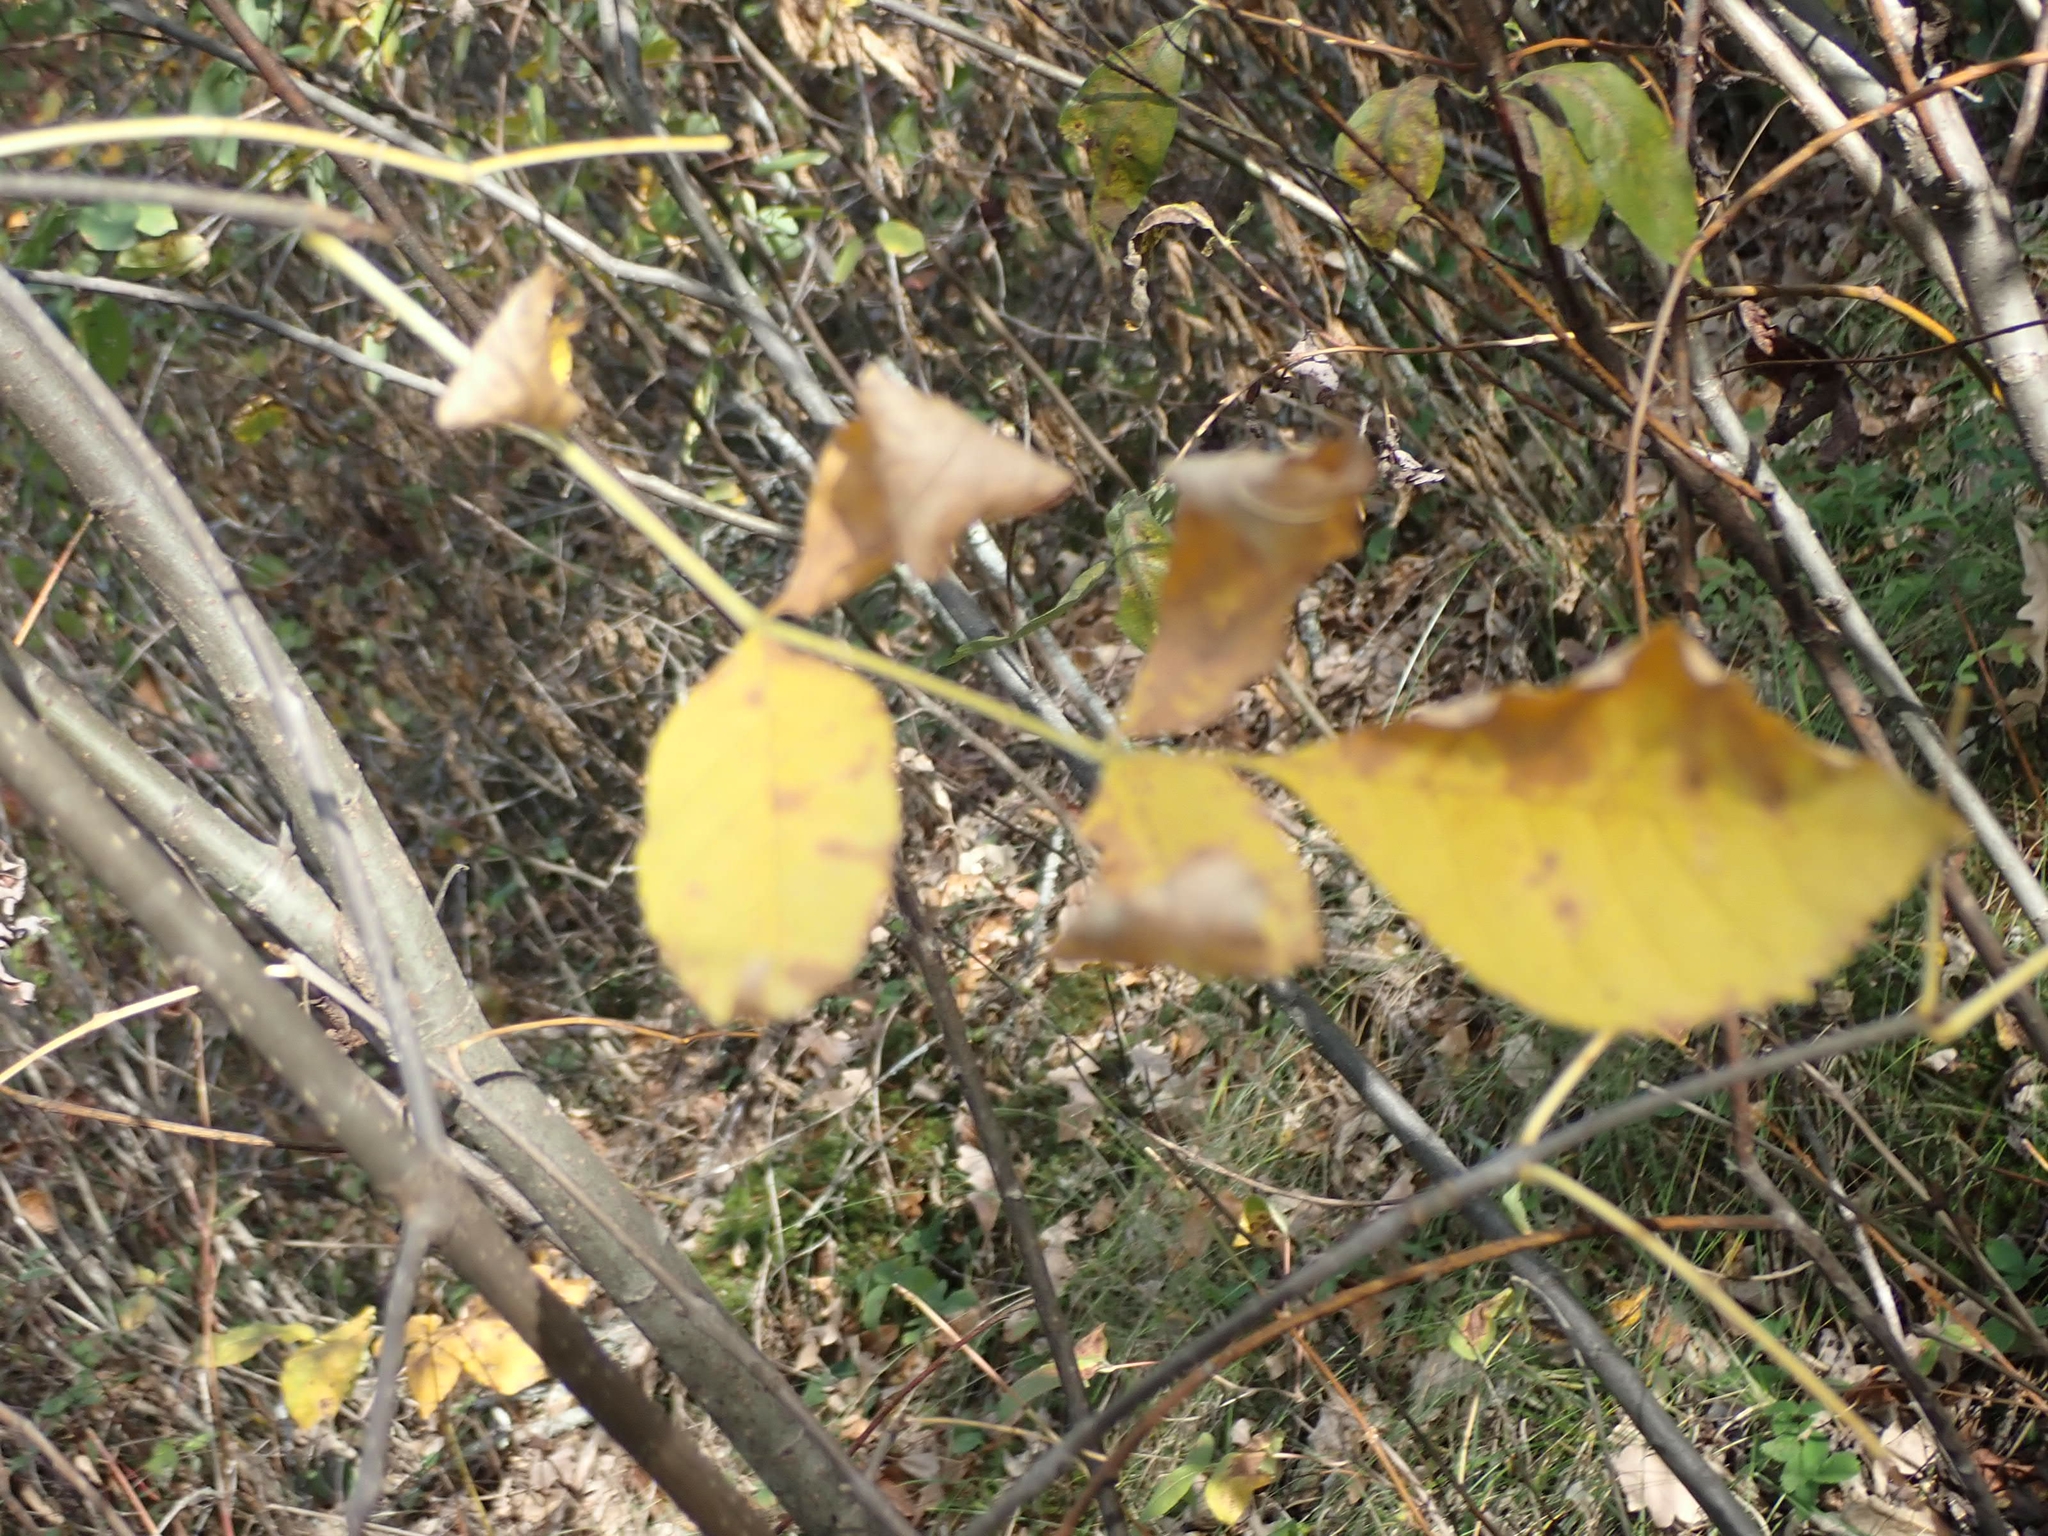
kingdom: Plantae
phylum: Tracheophyta
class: Magnoliopsida
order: Lamiales
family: Oleaceae
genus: Fraxinus
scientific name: Fraxinus pennsylvanica
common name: Green ash
